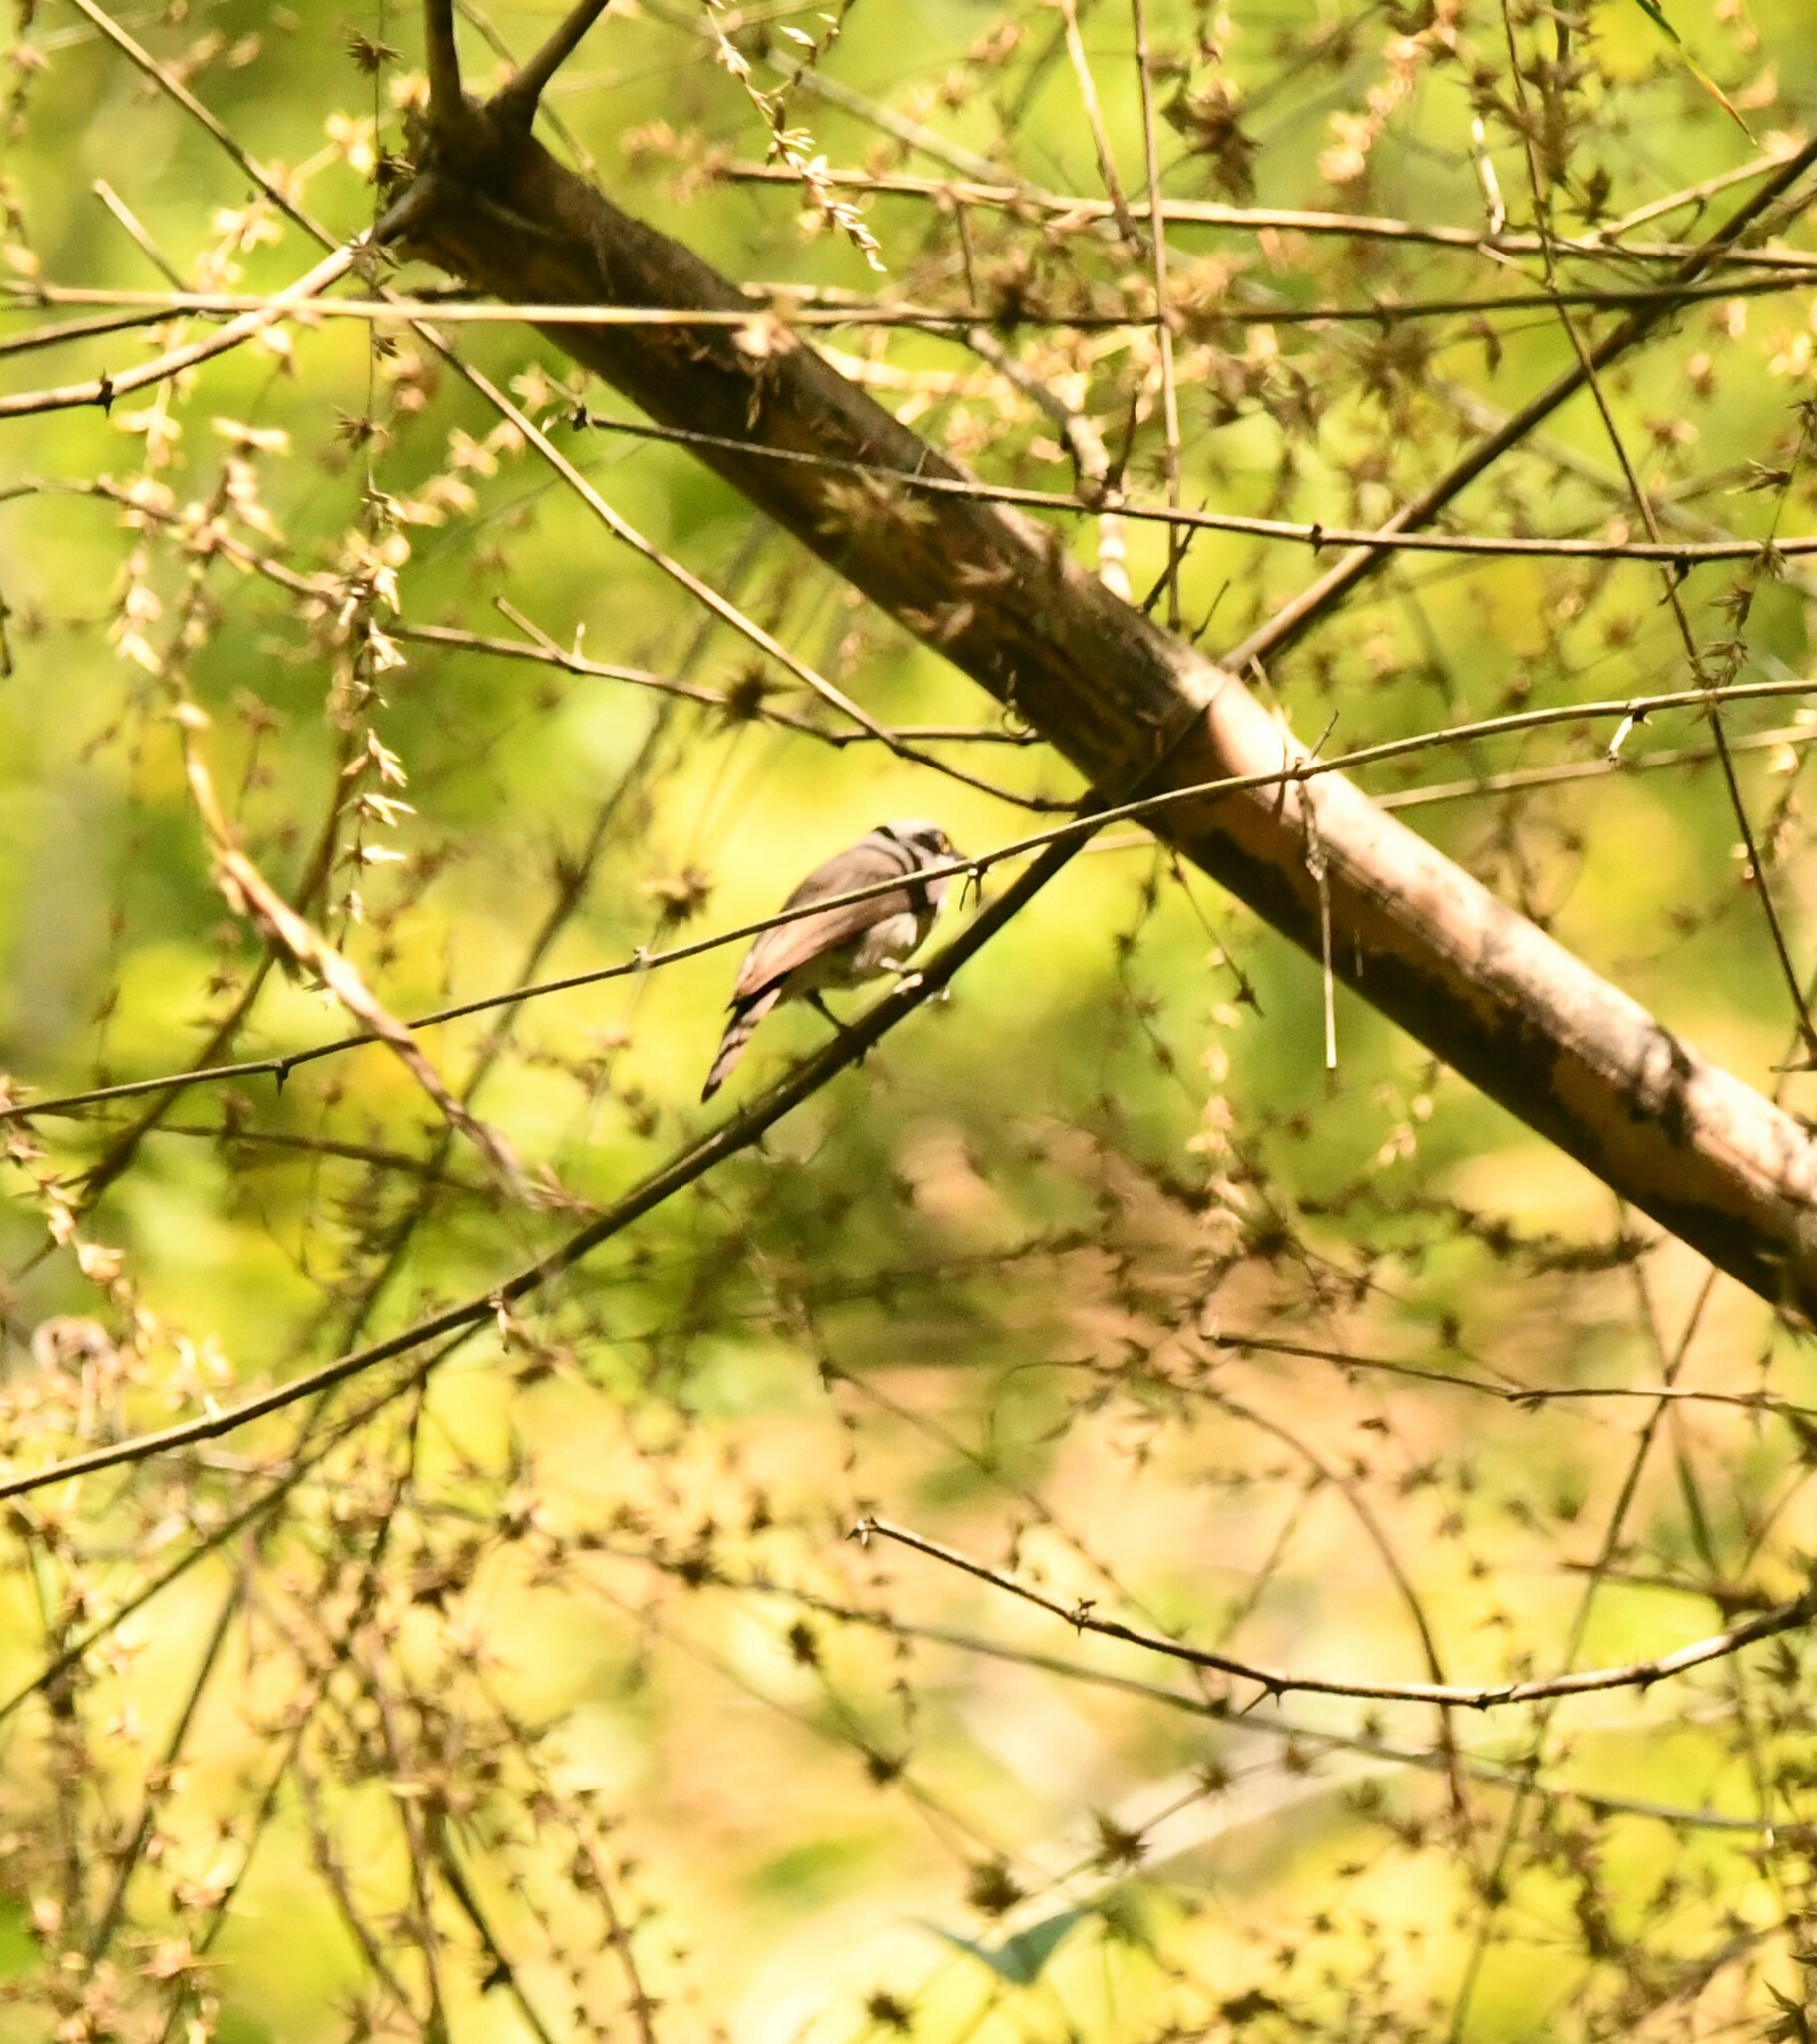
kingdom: Animalia
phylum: Chordata
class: Aves
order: Passeriformes
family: Tephrodornithidae
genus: Tephrodornis
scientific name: Tephrodornis sylvicola
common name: Malabar woodshrike
